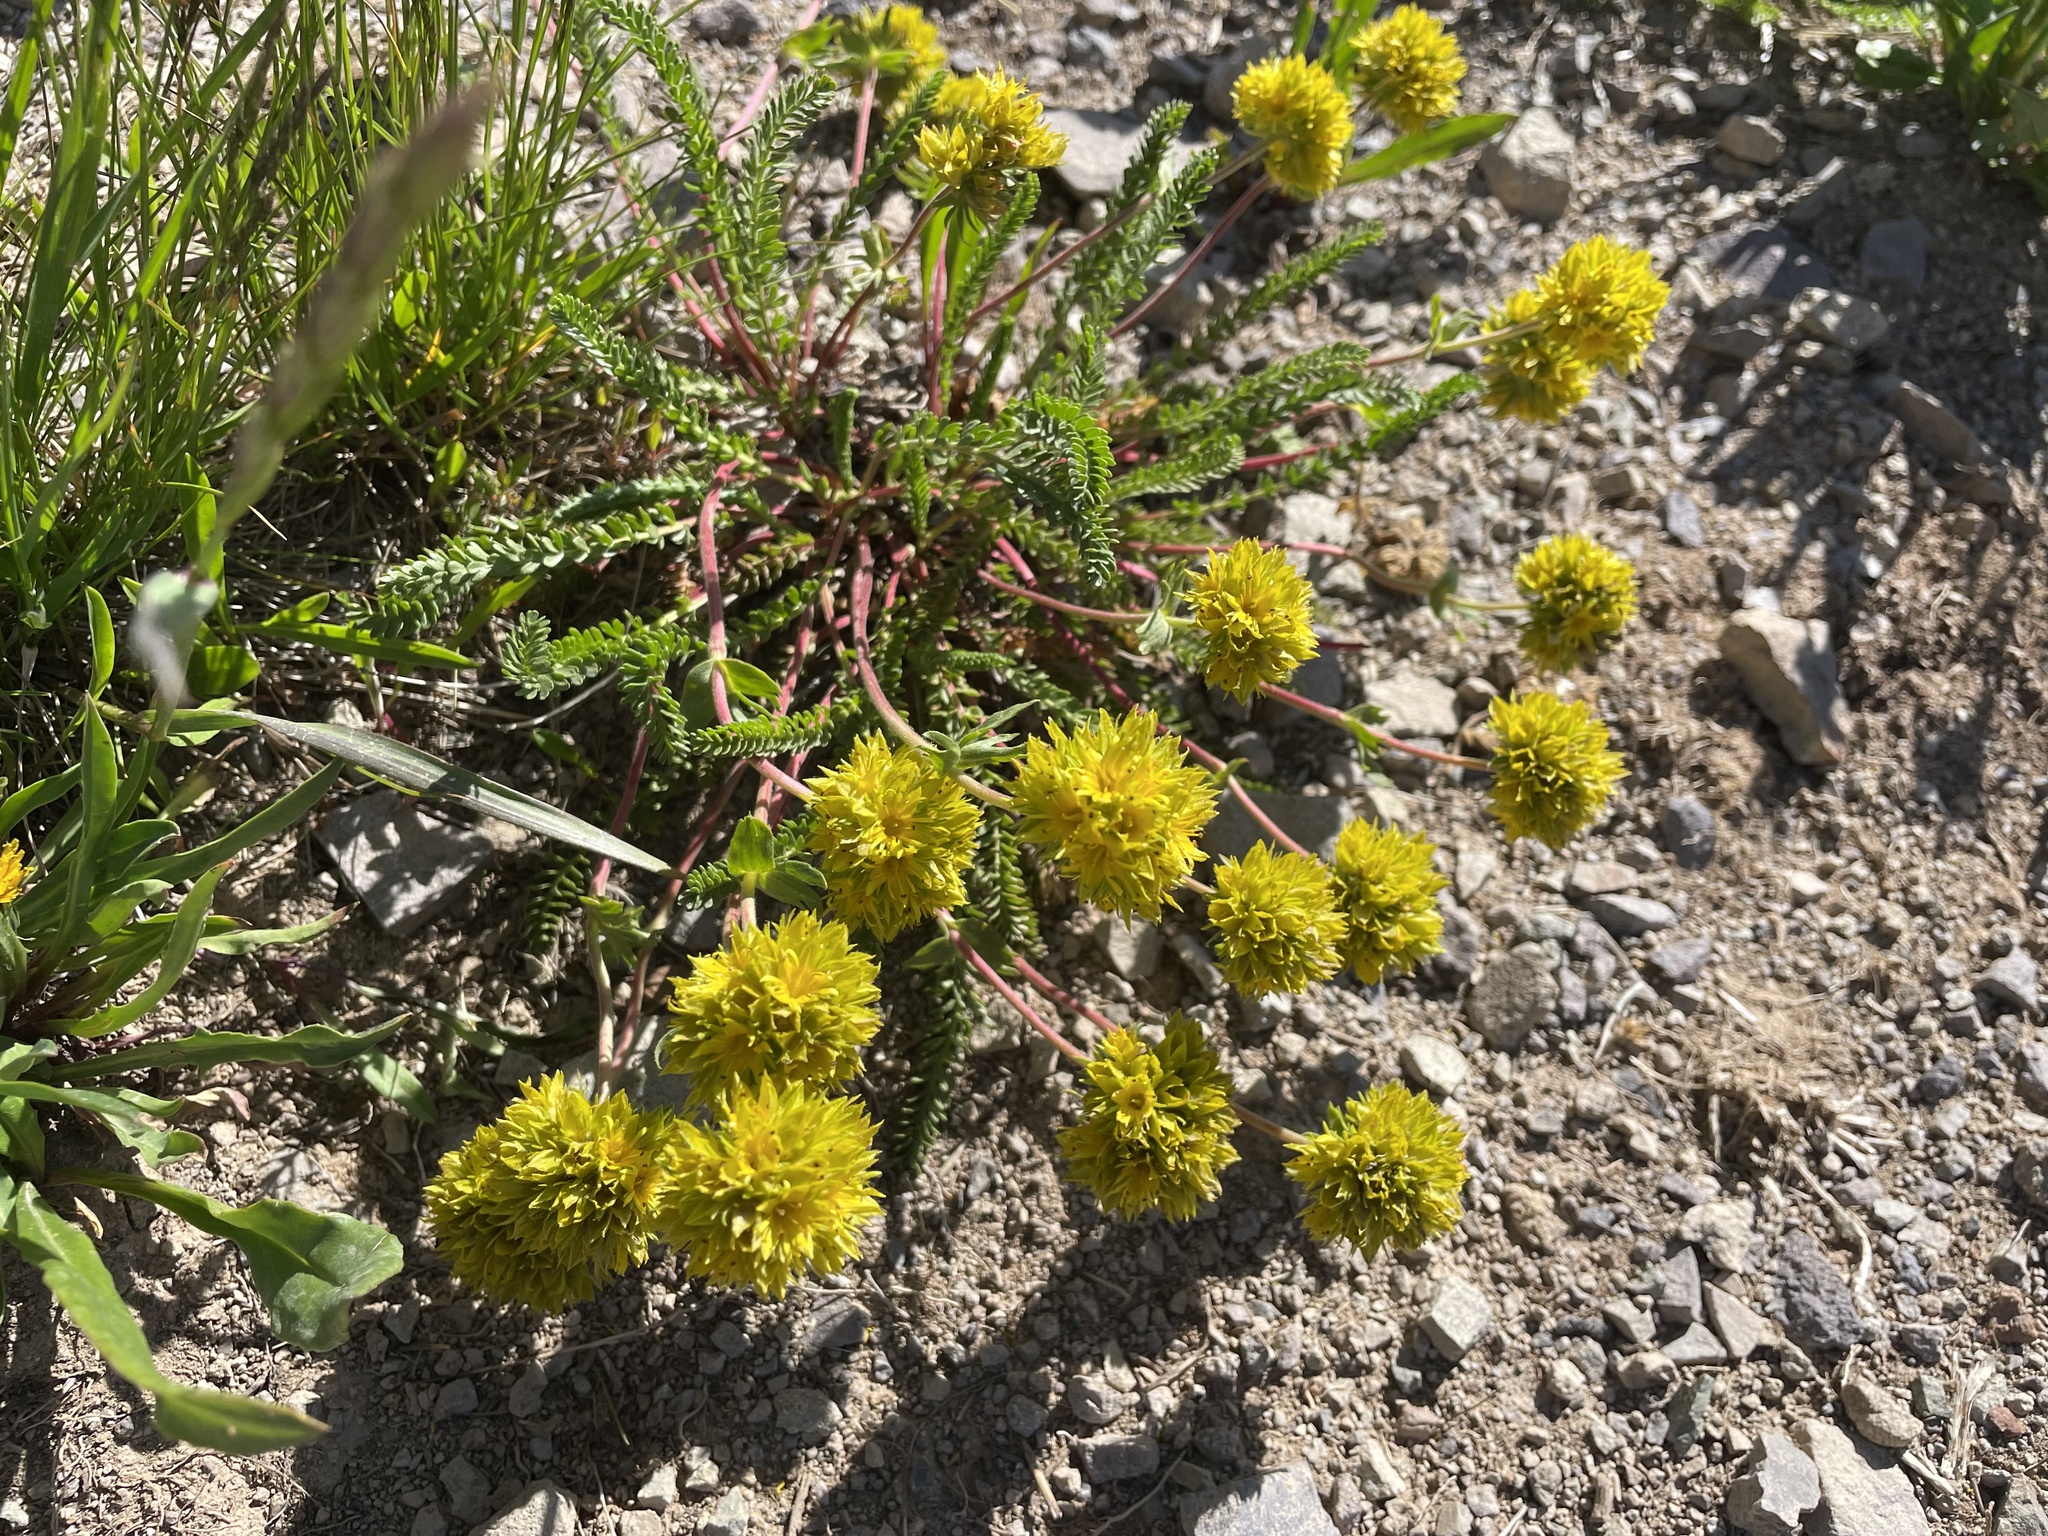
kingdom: Plantae
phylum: Tracheophyta
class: Magnoliopsida
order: Rosales
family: Rosaceae
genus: Potentilla
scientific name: Potentilla gordonii
